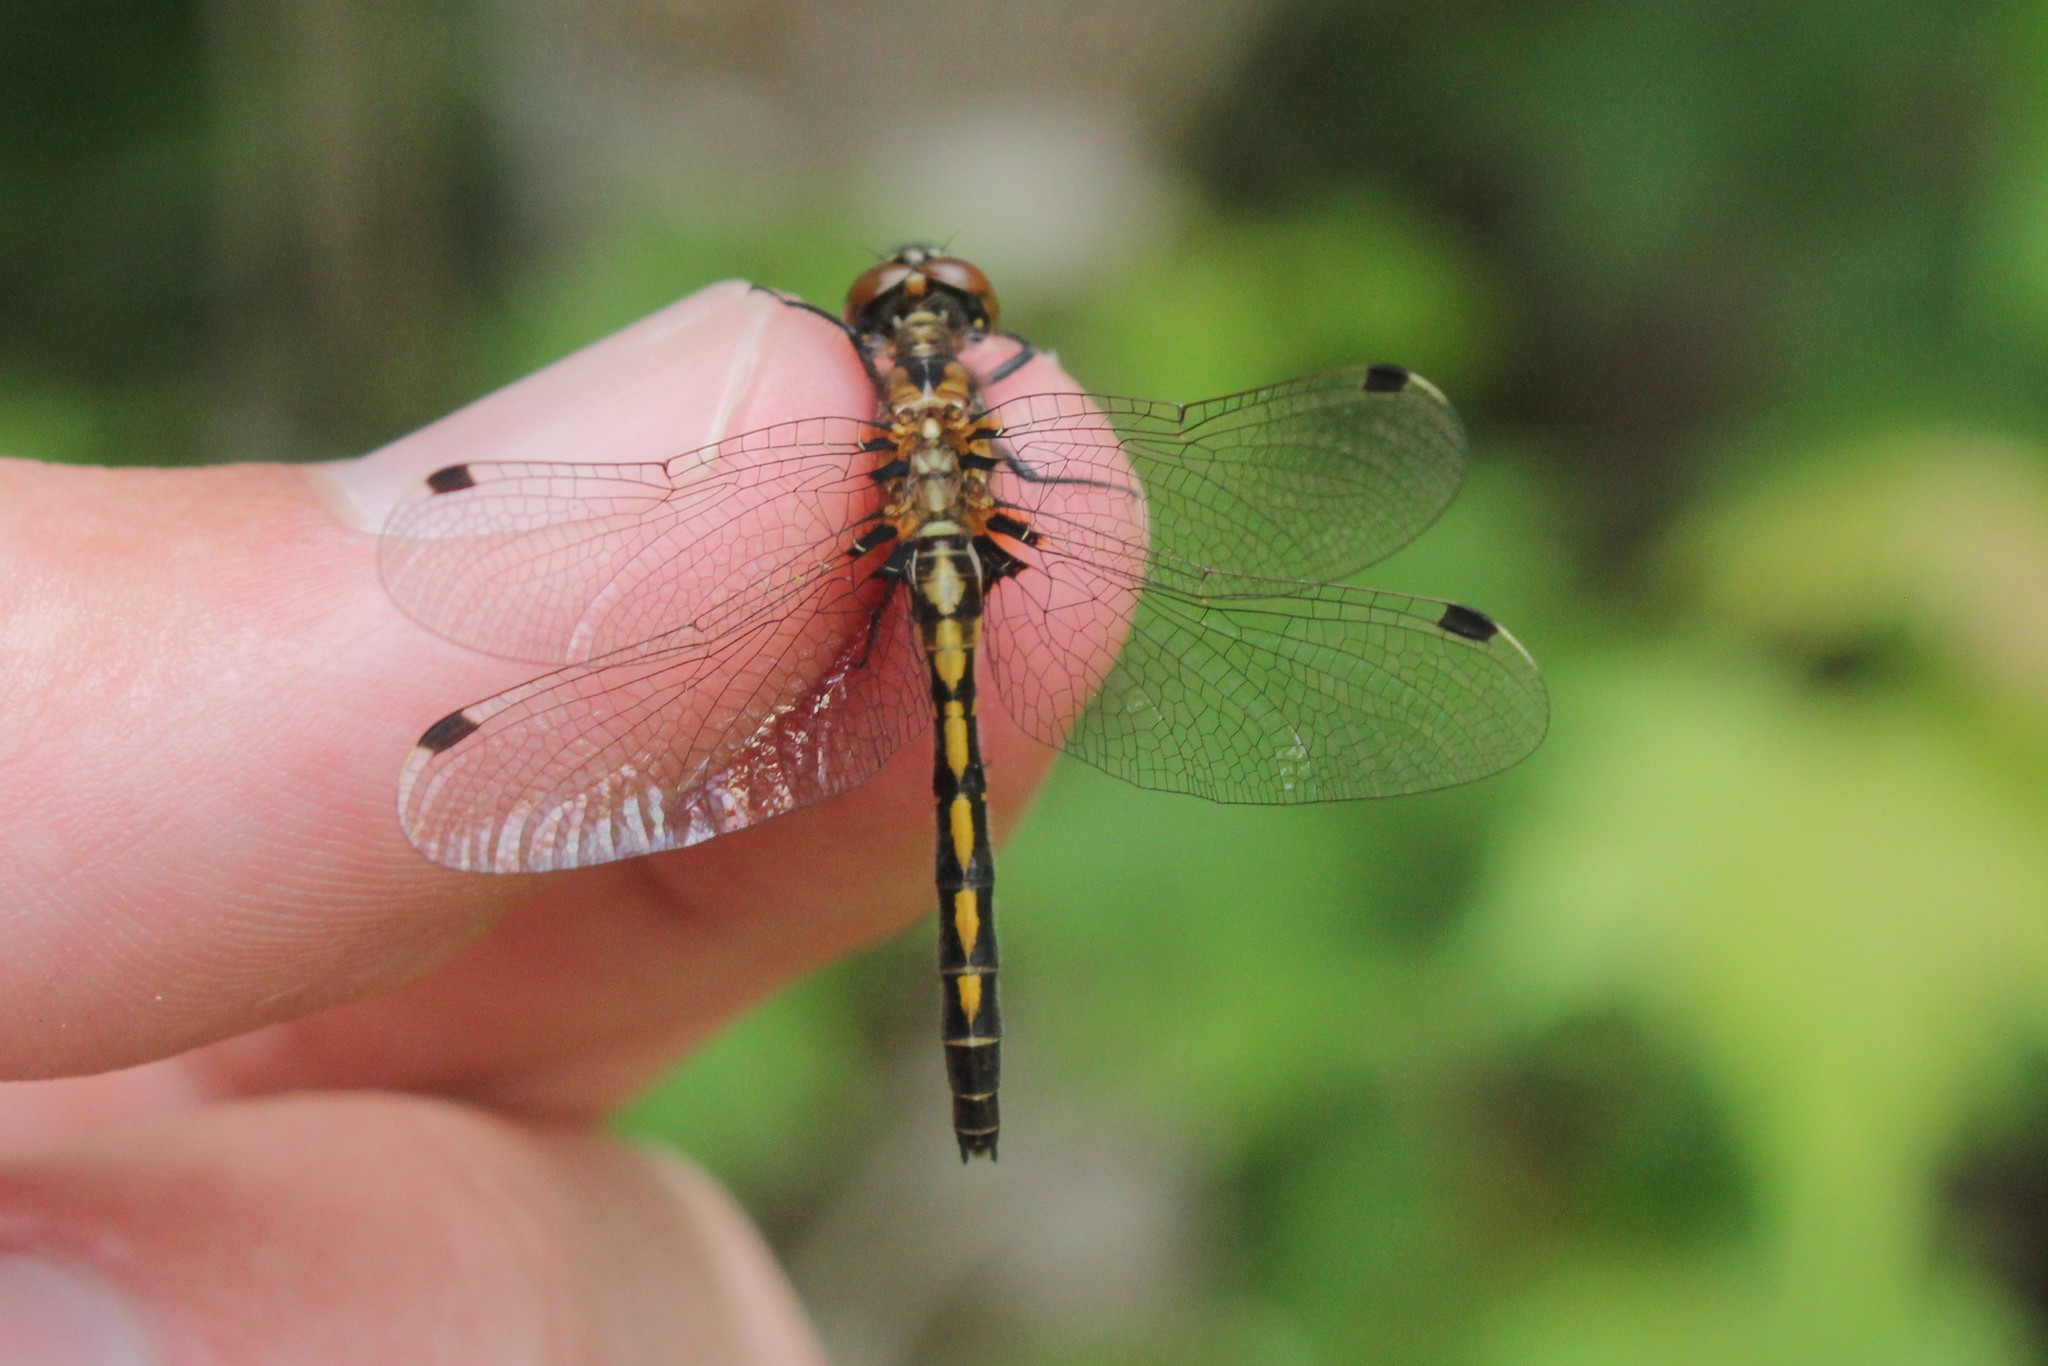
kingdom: Animalia
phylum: Arthropoda
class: Insecta
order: Odonata
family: Libellulidae
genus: Leucorrhinia
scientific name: Leucorrhinia hudsonica
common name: Hudsonian whiteface
